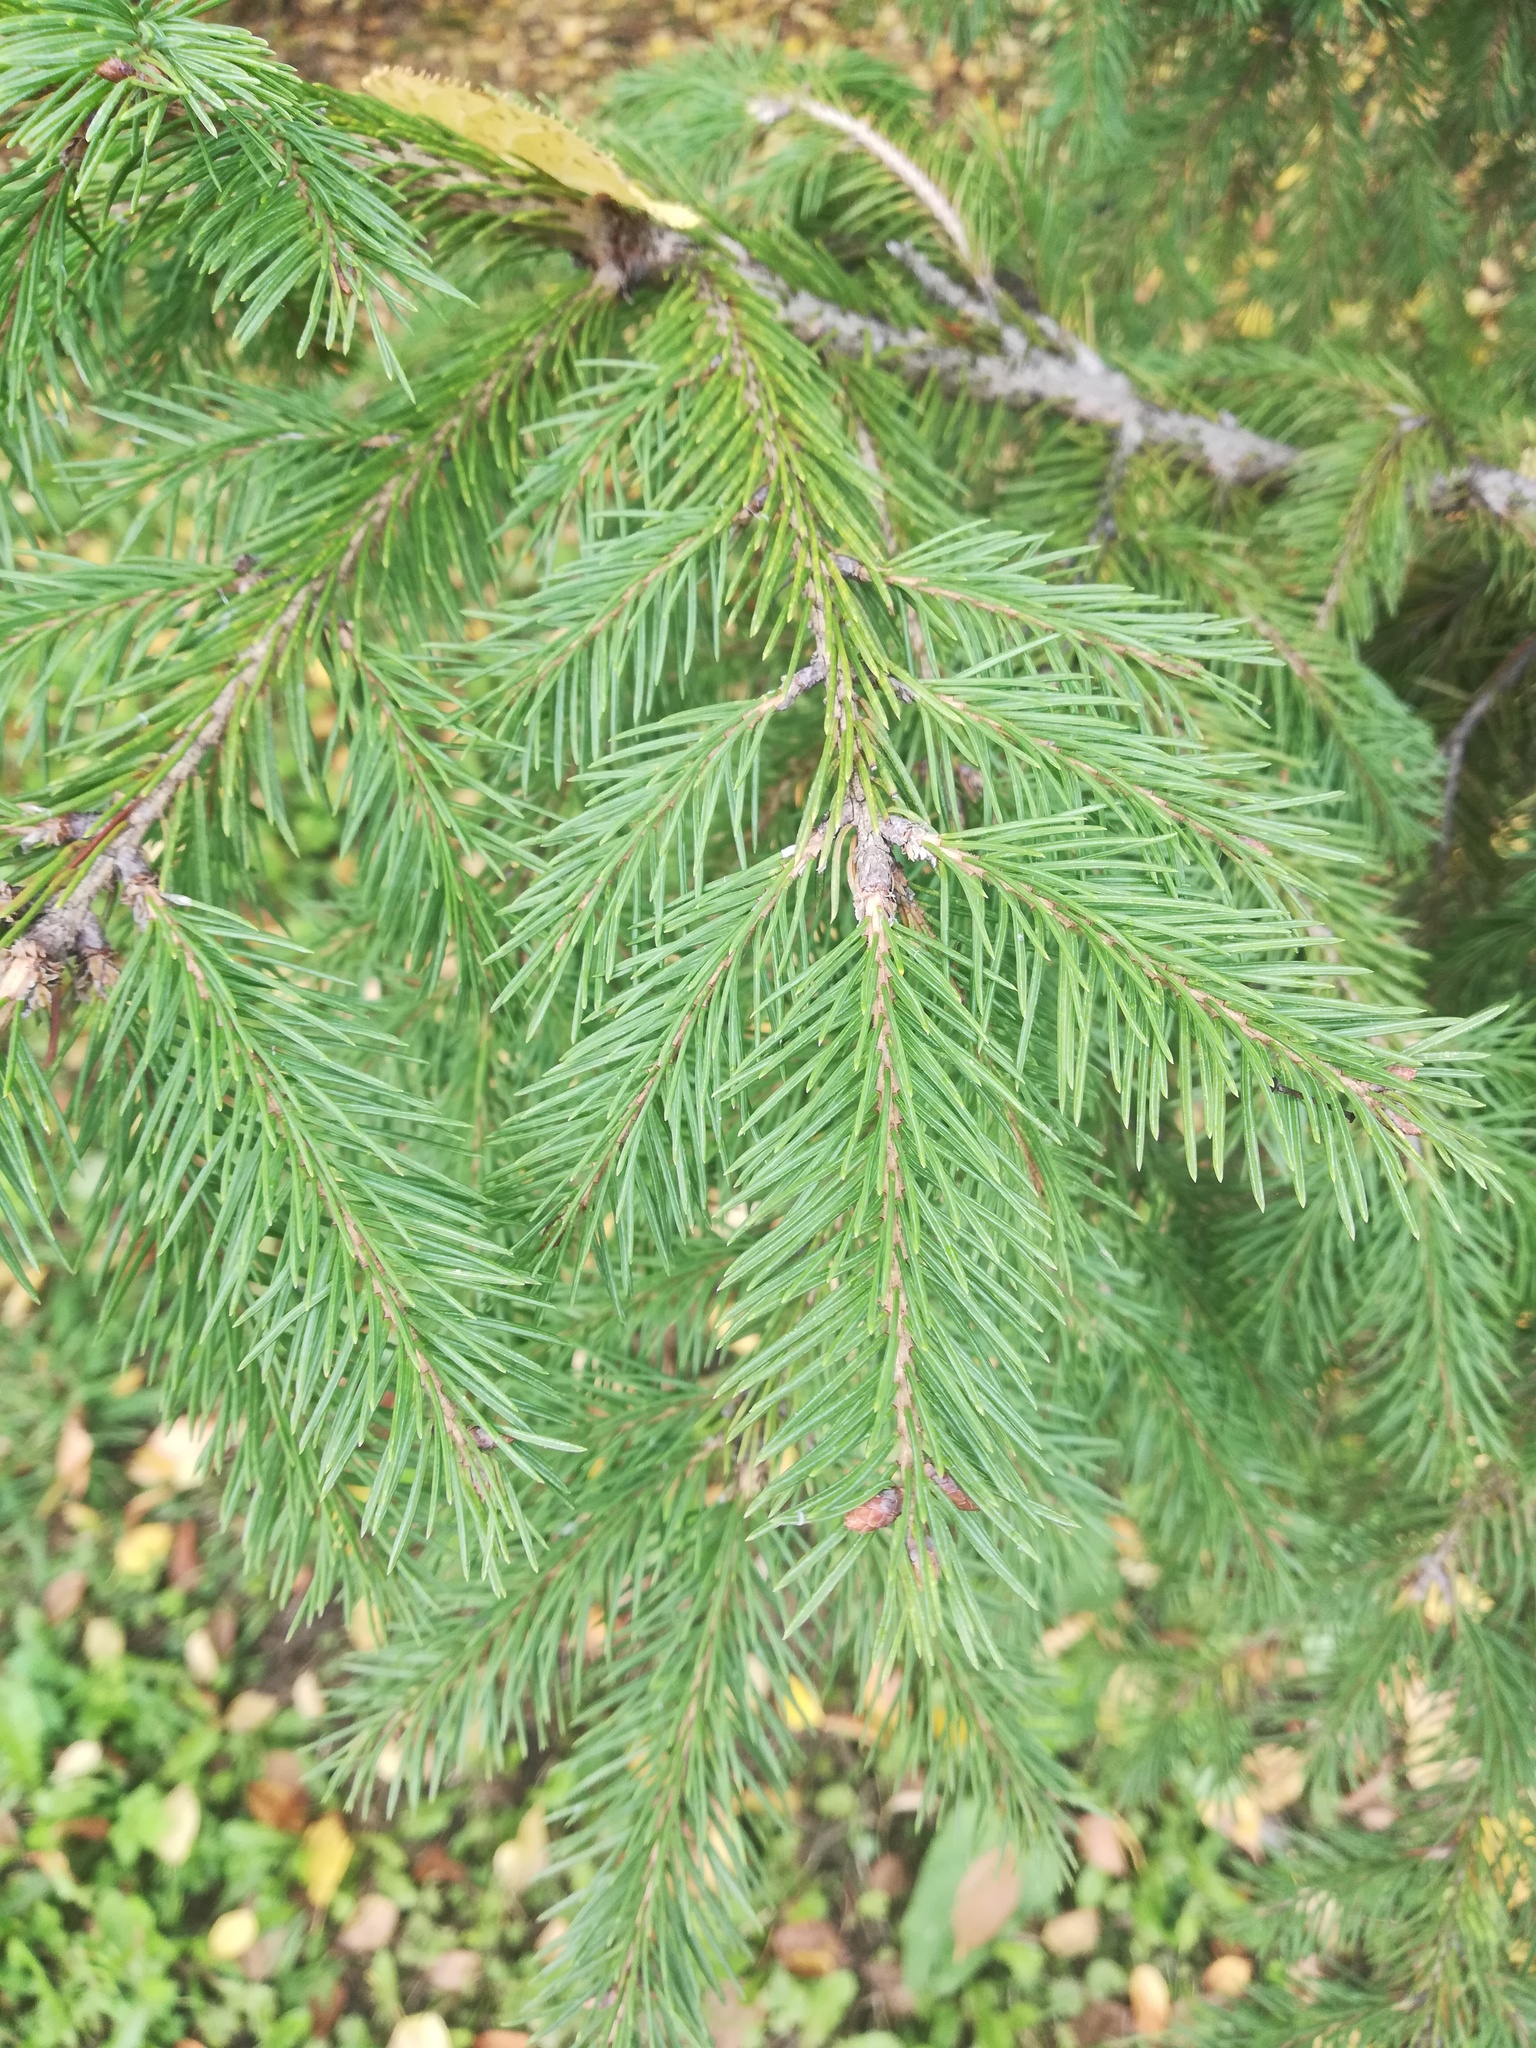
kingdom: Plantae
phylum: Tracheophyta
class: Pinopsida
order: Pinales
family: Pinaceae
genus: Picea
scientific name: Picea obovata
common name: Siberian spruce
